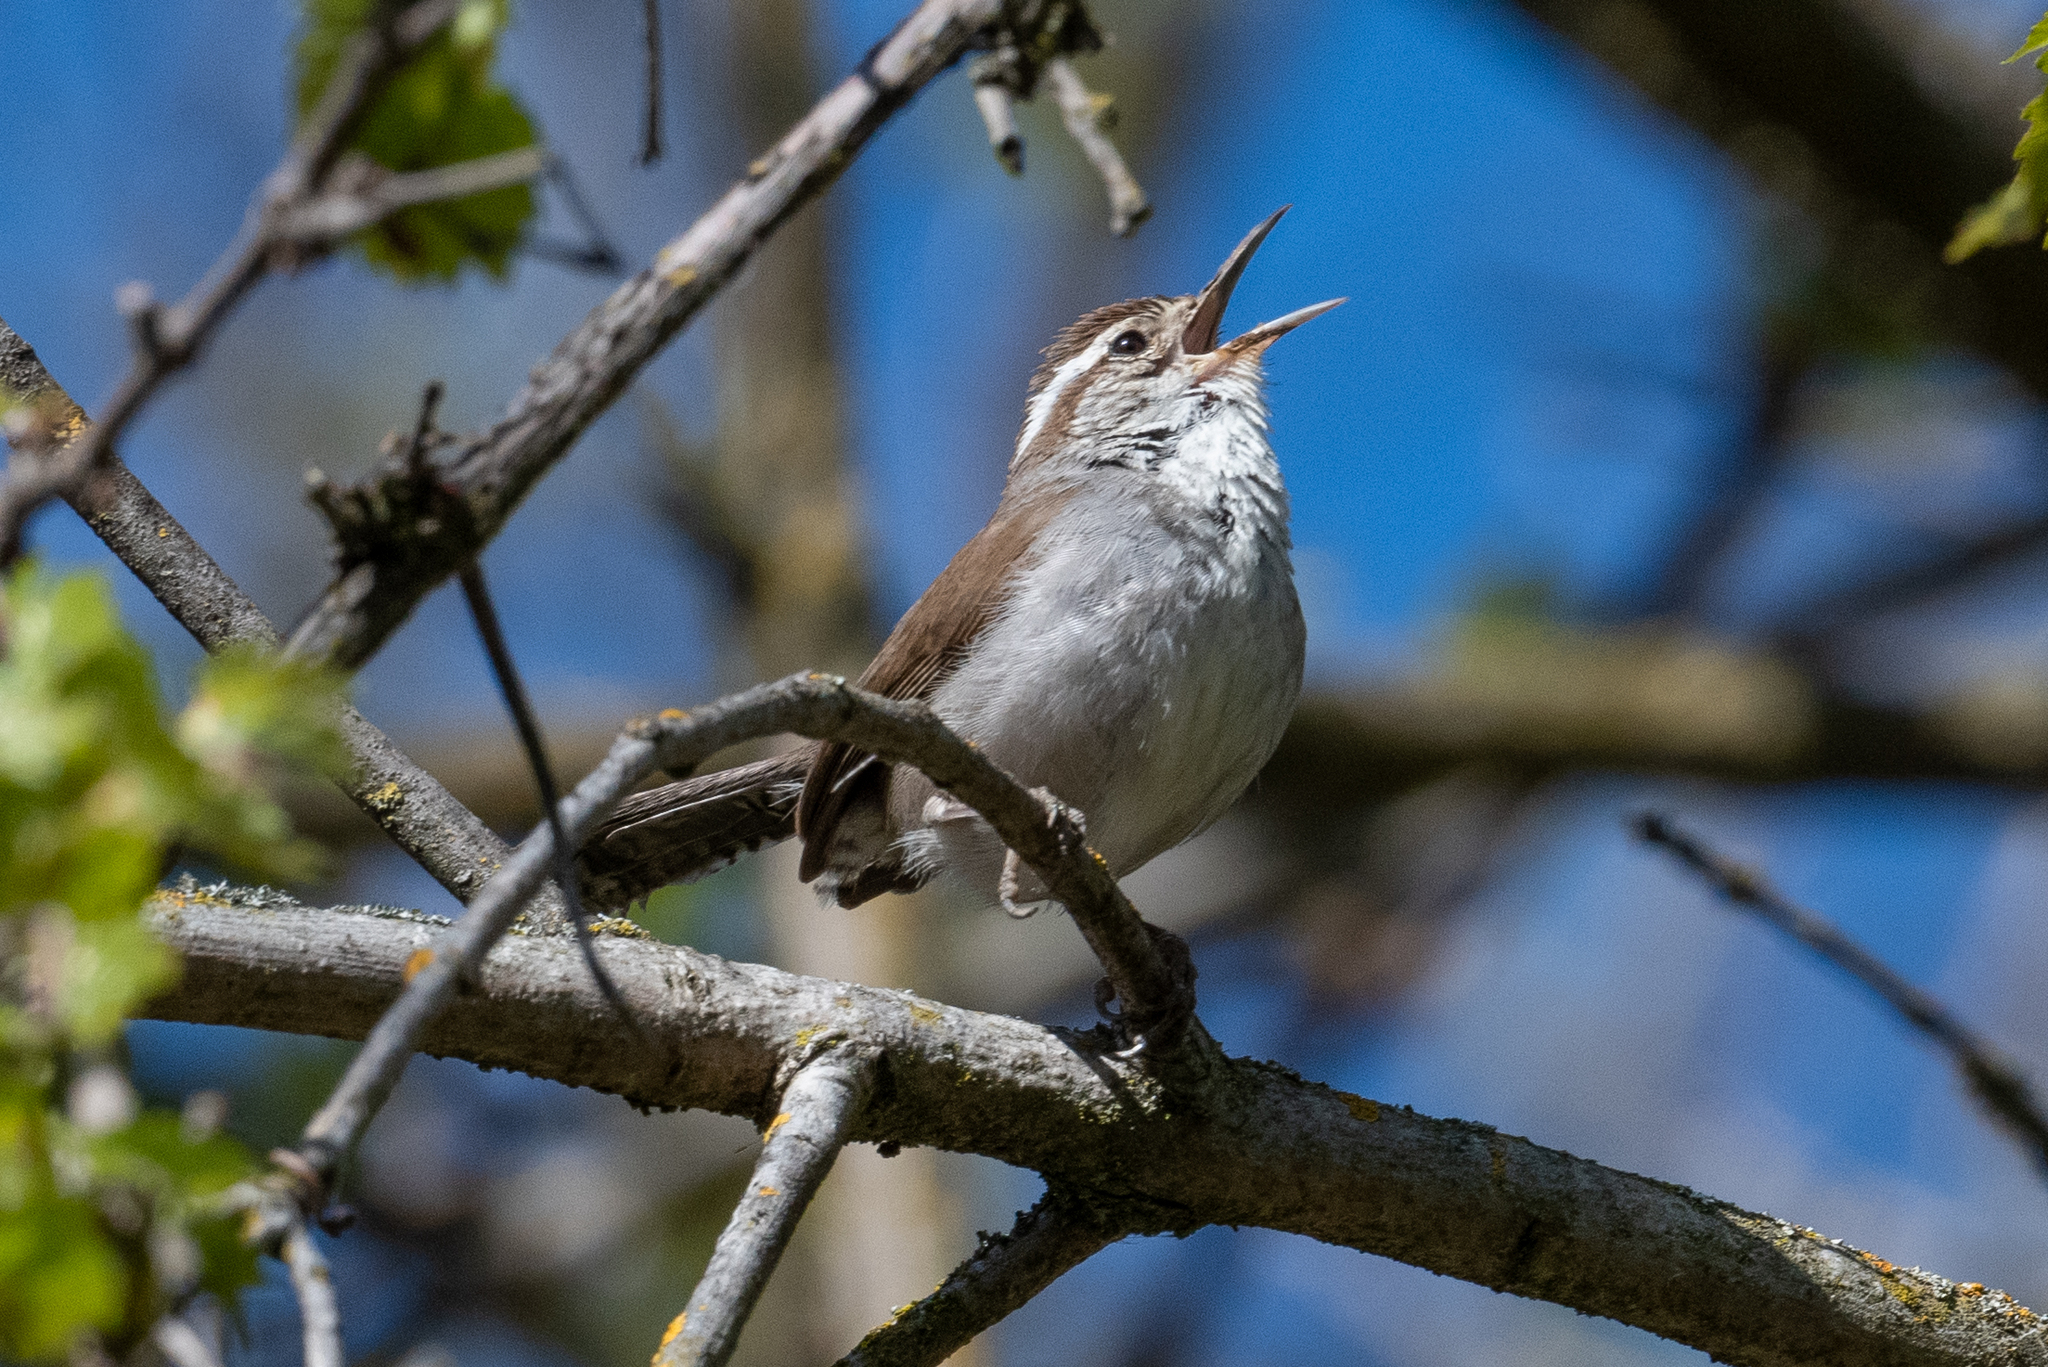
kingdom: Animalia
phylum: Chordata
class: Aves
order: Passeriformes
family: Troglodytidae
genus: Thryomanes
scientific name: Thryomanes bewickii
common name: Bewick's wren
